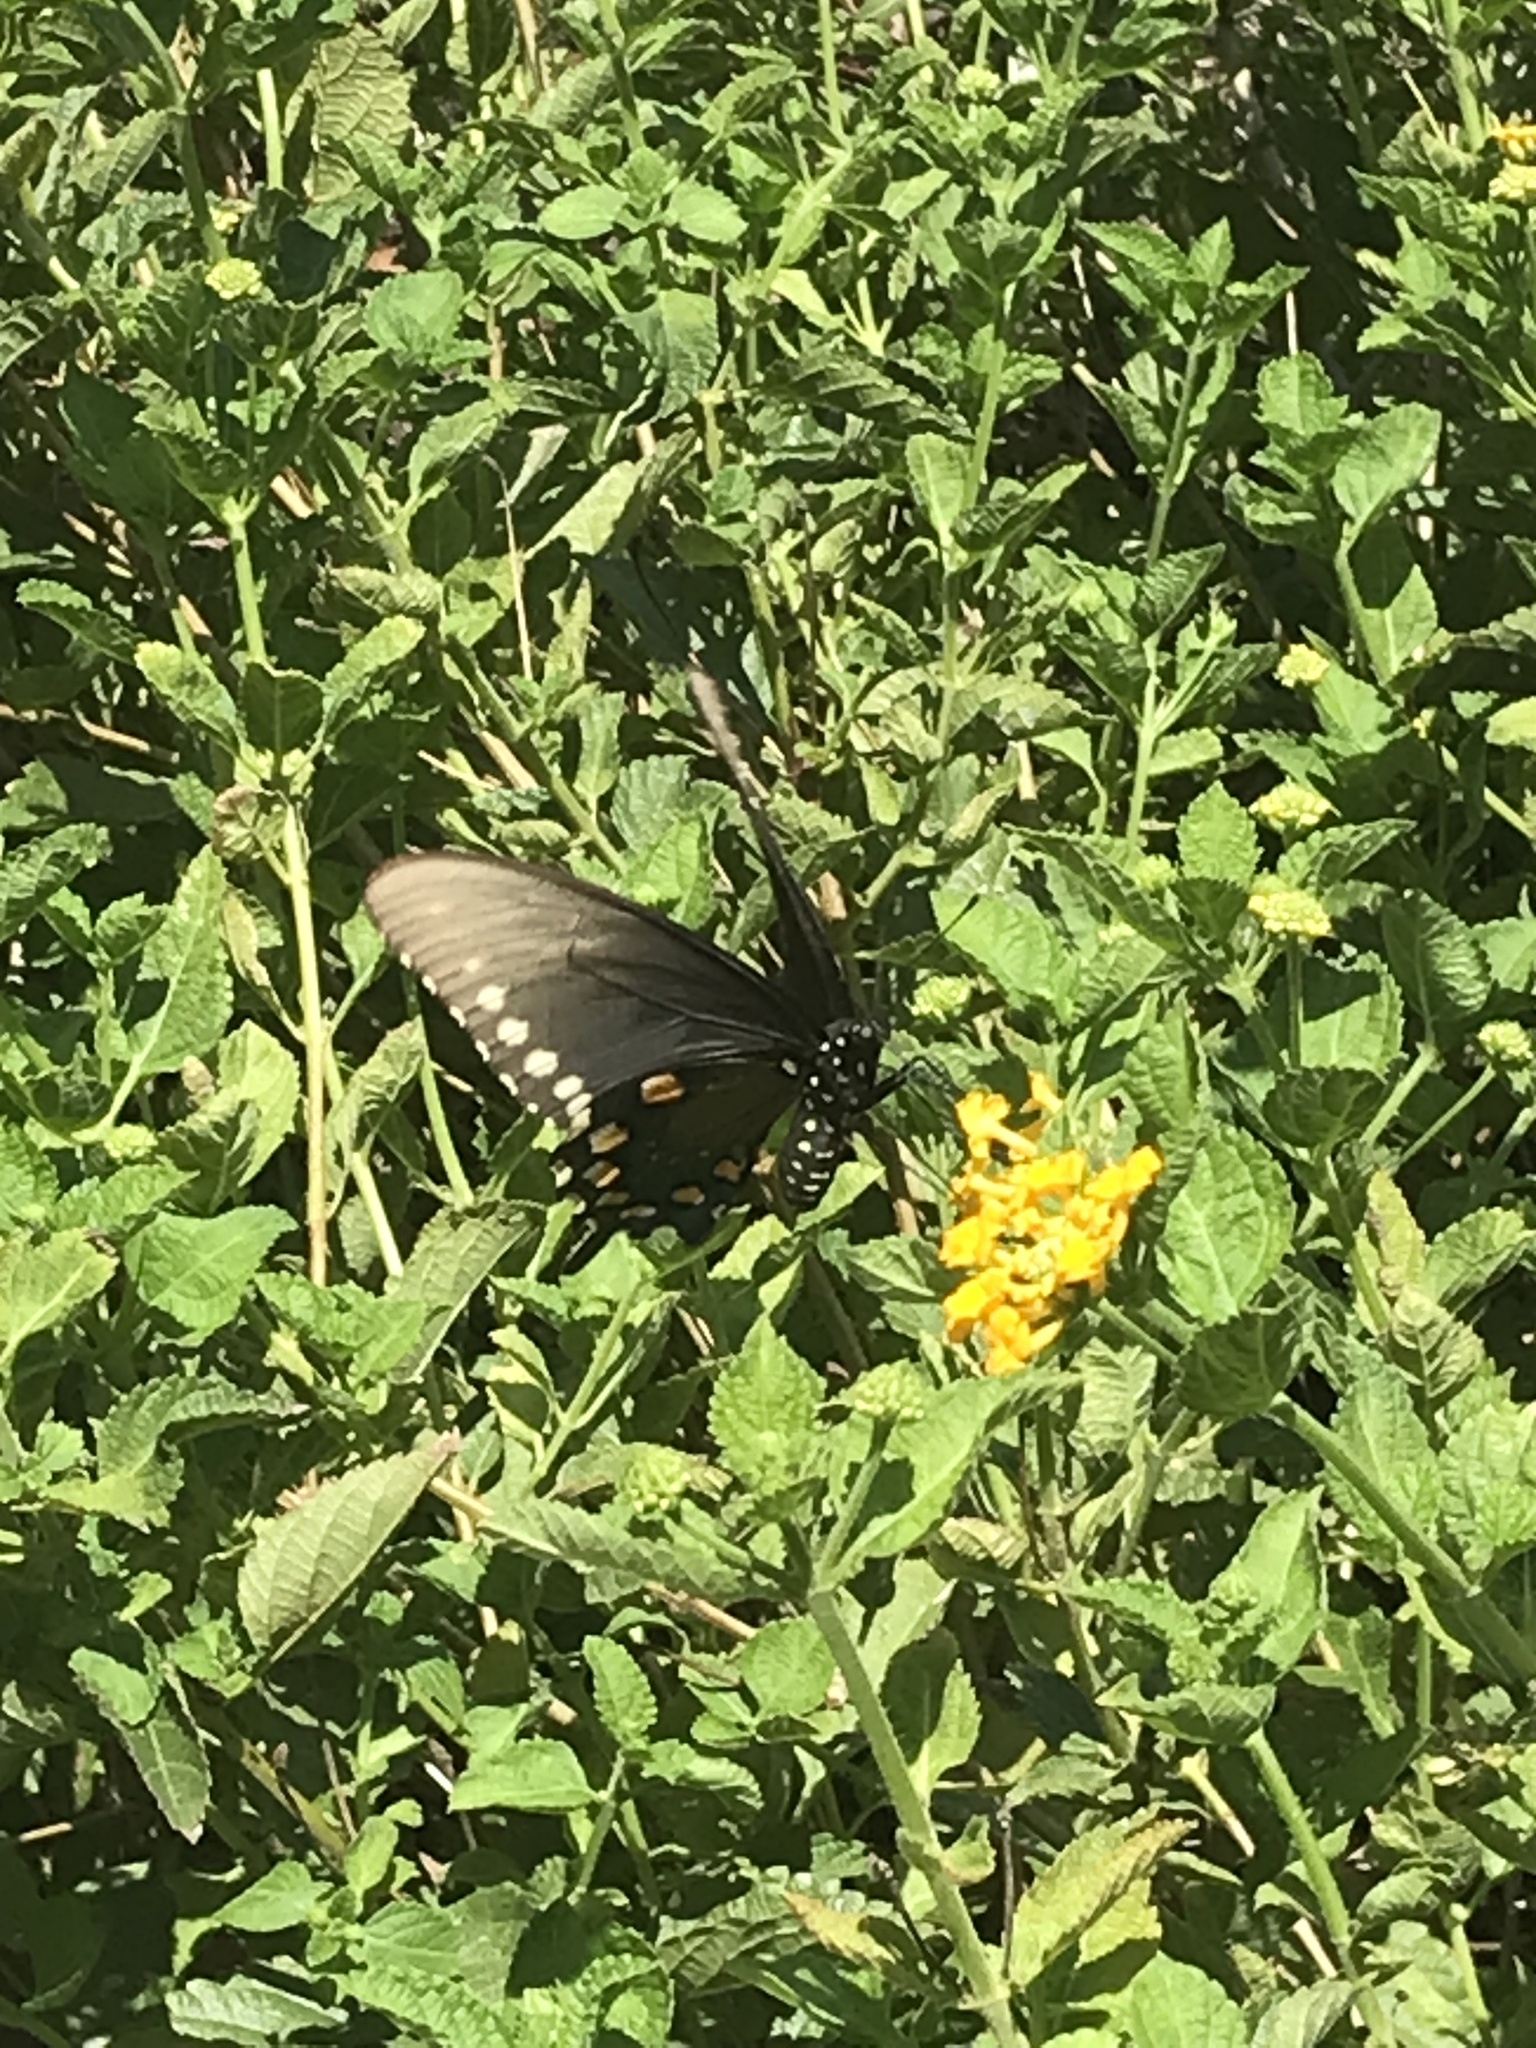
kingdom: Animalia
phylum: Arthropoda
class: Insecta
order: Lepidoptera
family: Papilionidae
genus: Battus
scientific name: Battus philenor
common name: Pipevine swallowtail
